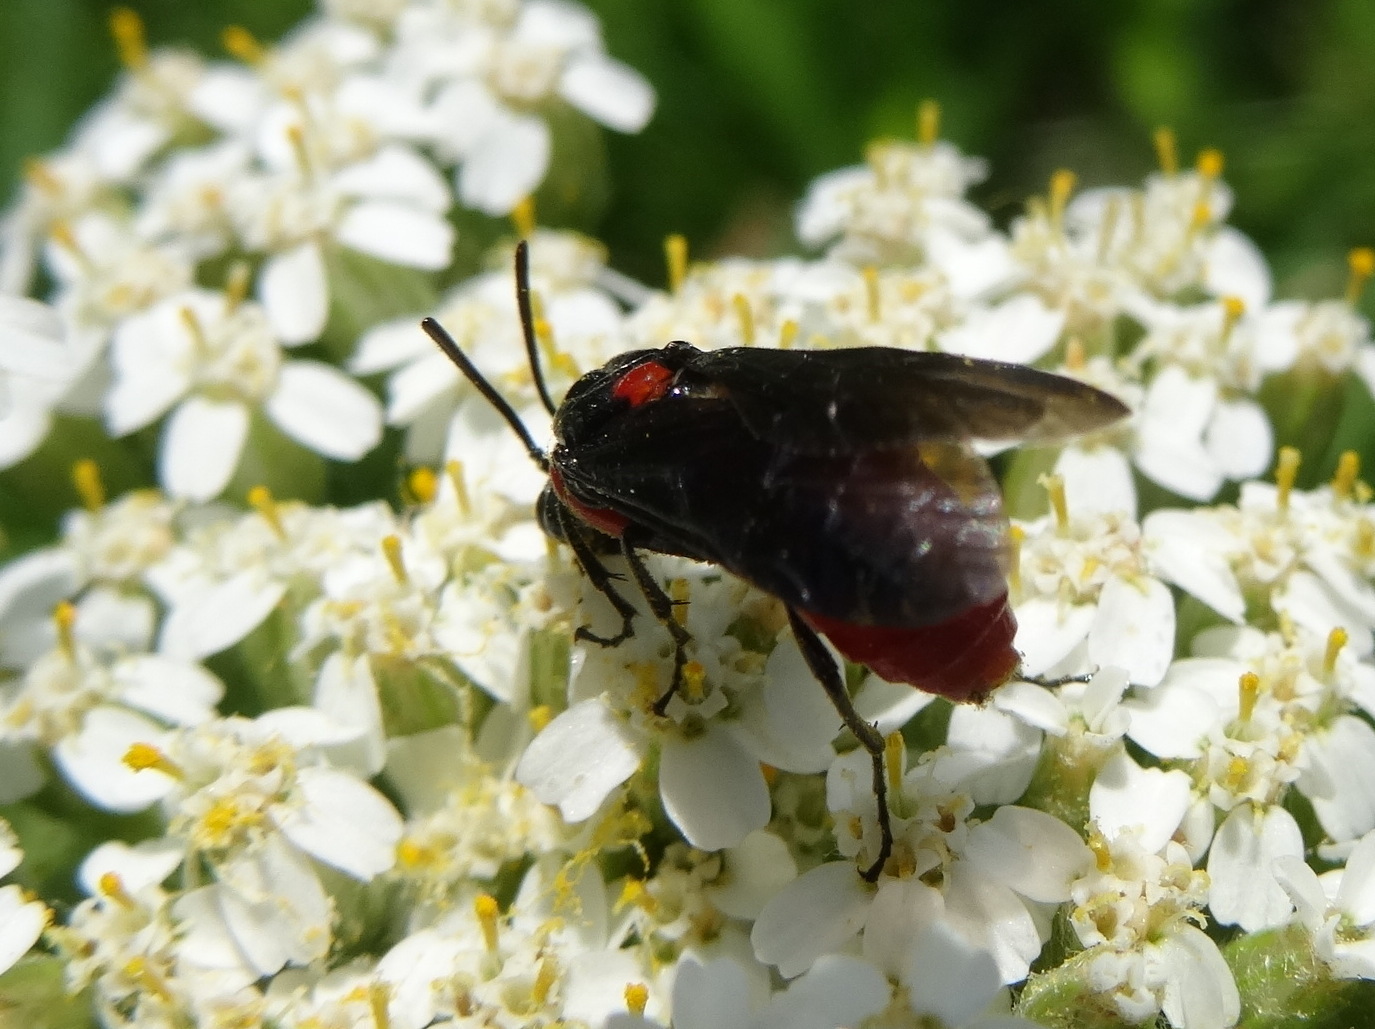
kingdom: Animalia
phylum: Arthropoda
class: Insecta
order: Hymenoptera
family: Argidae
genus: Arge
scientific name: Arge humeralis
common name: Poison ivy sawfly
